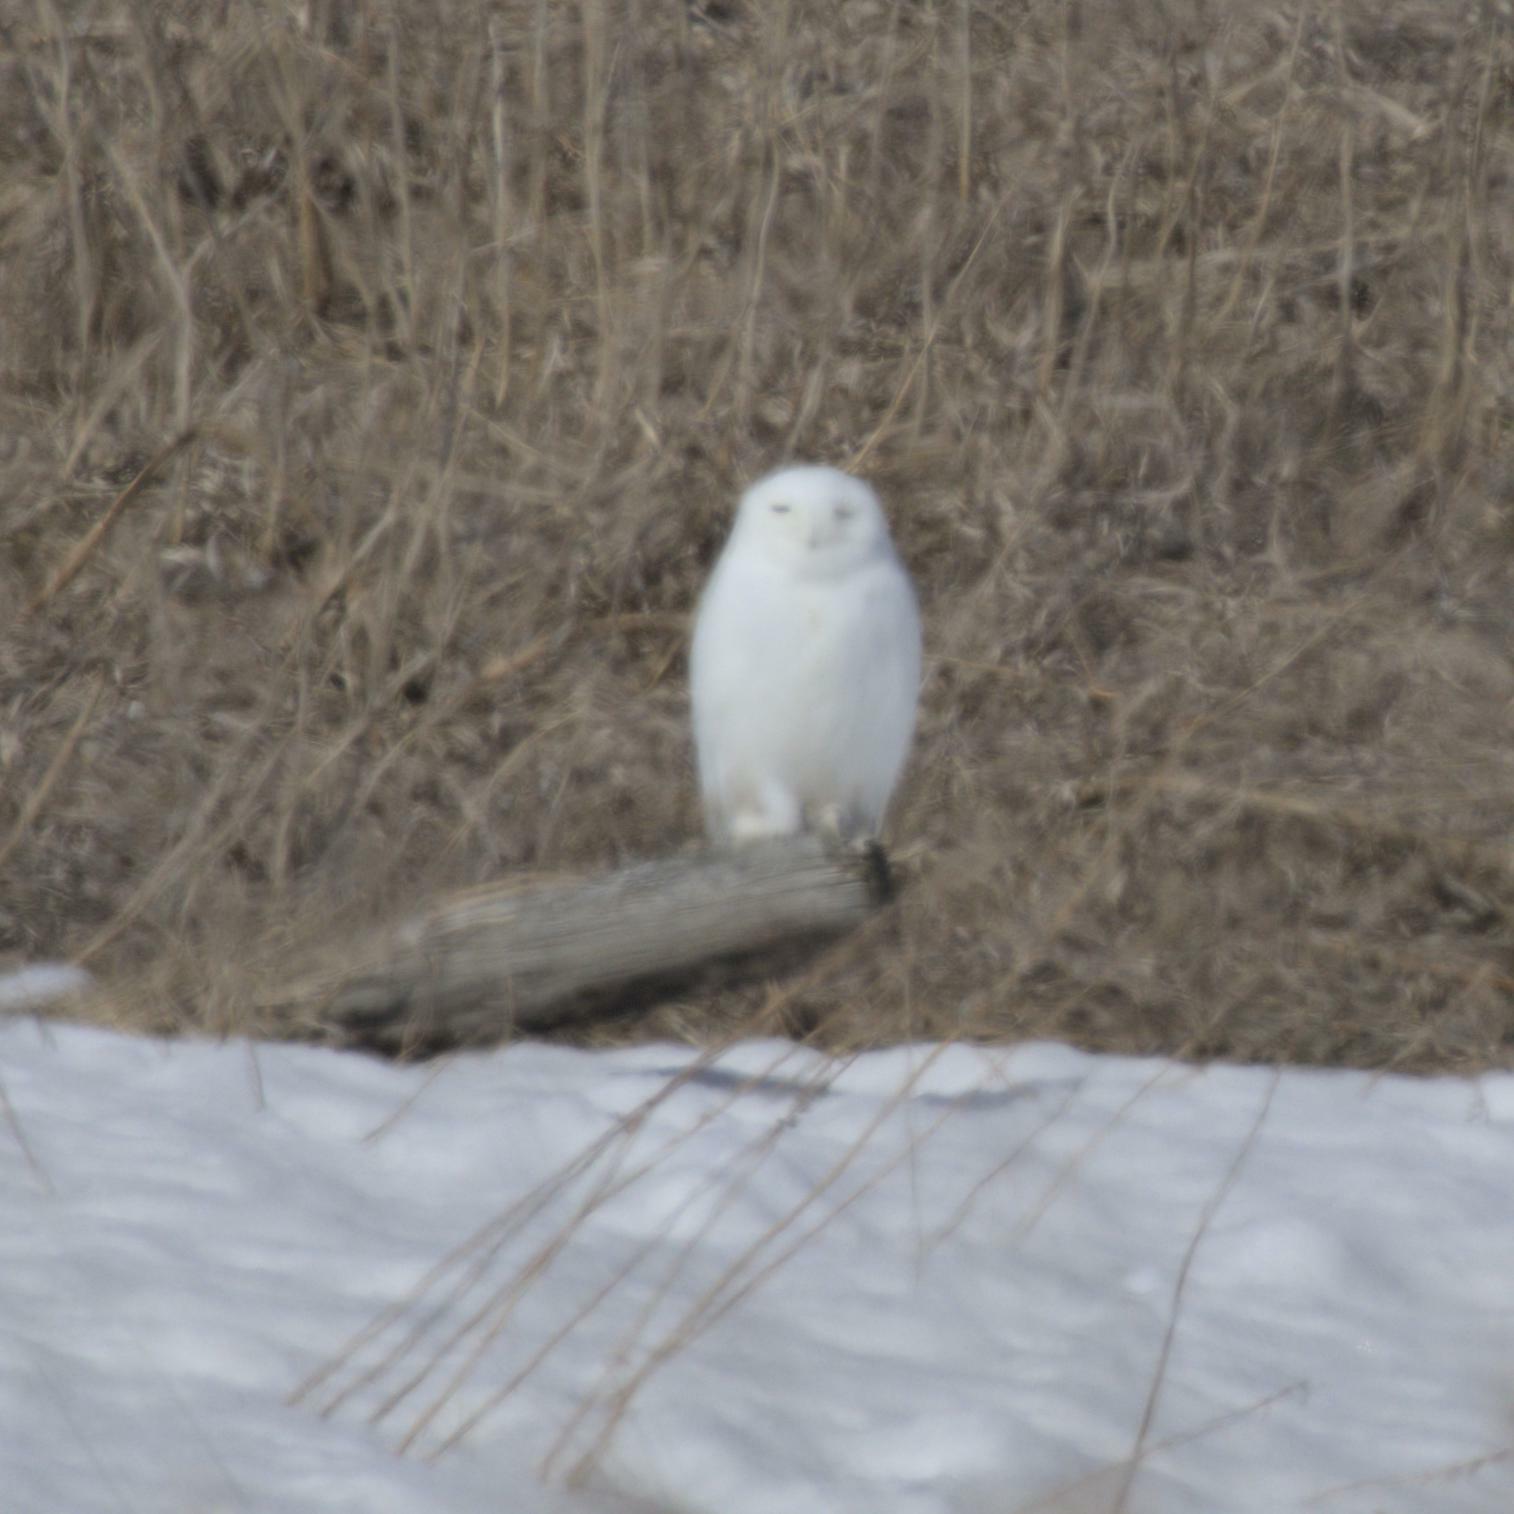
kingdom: Animalia
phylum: Chordata
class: Aves
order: Strigiformes
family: Strigidae
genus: Bubo
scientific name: Bubo scandiacus
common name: Snowy owl
